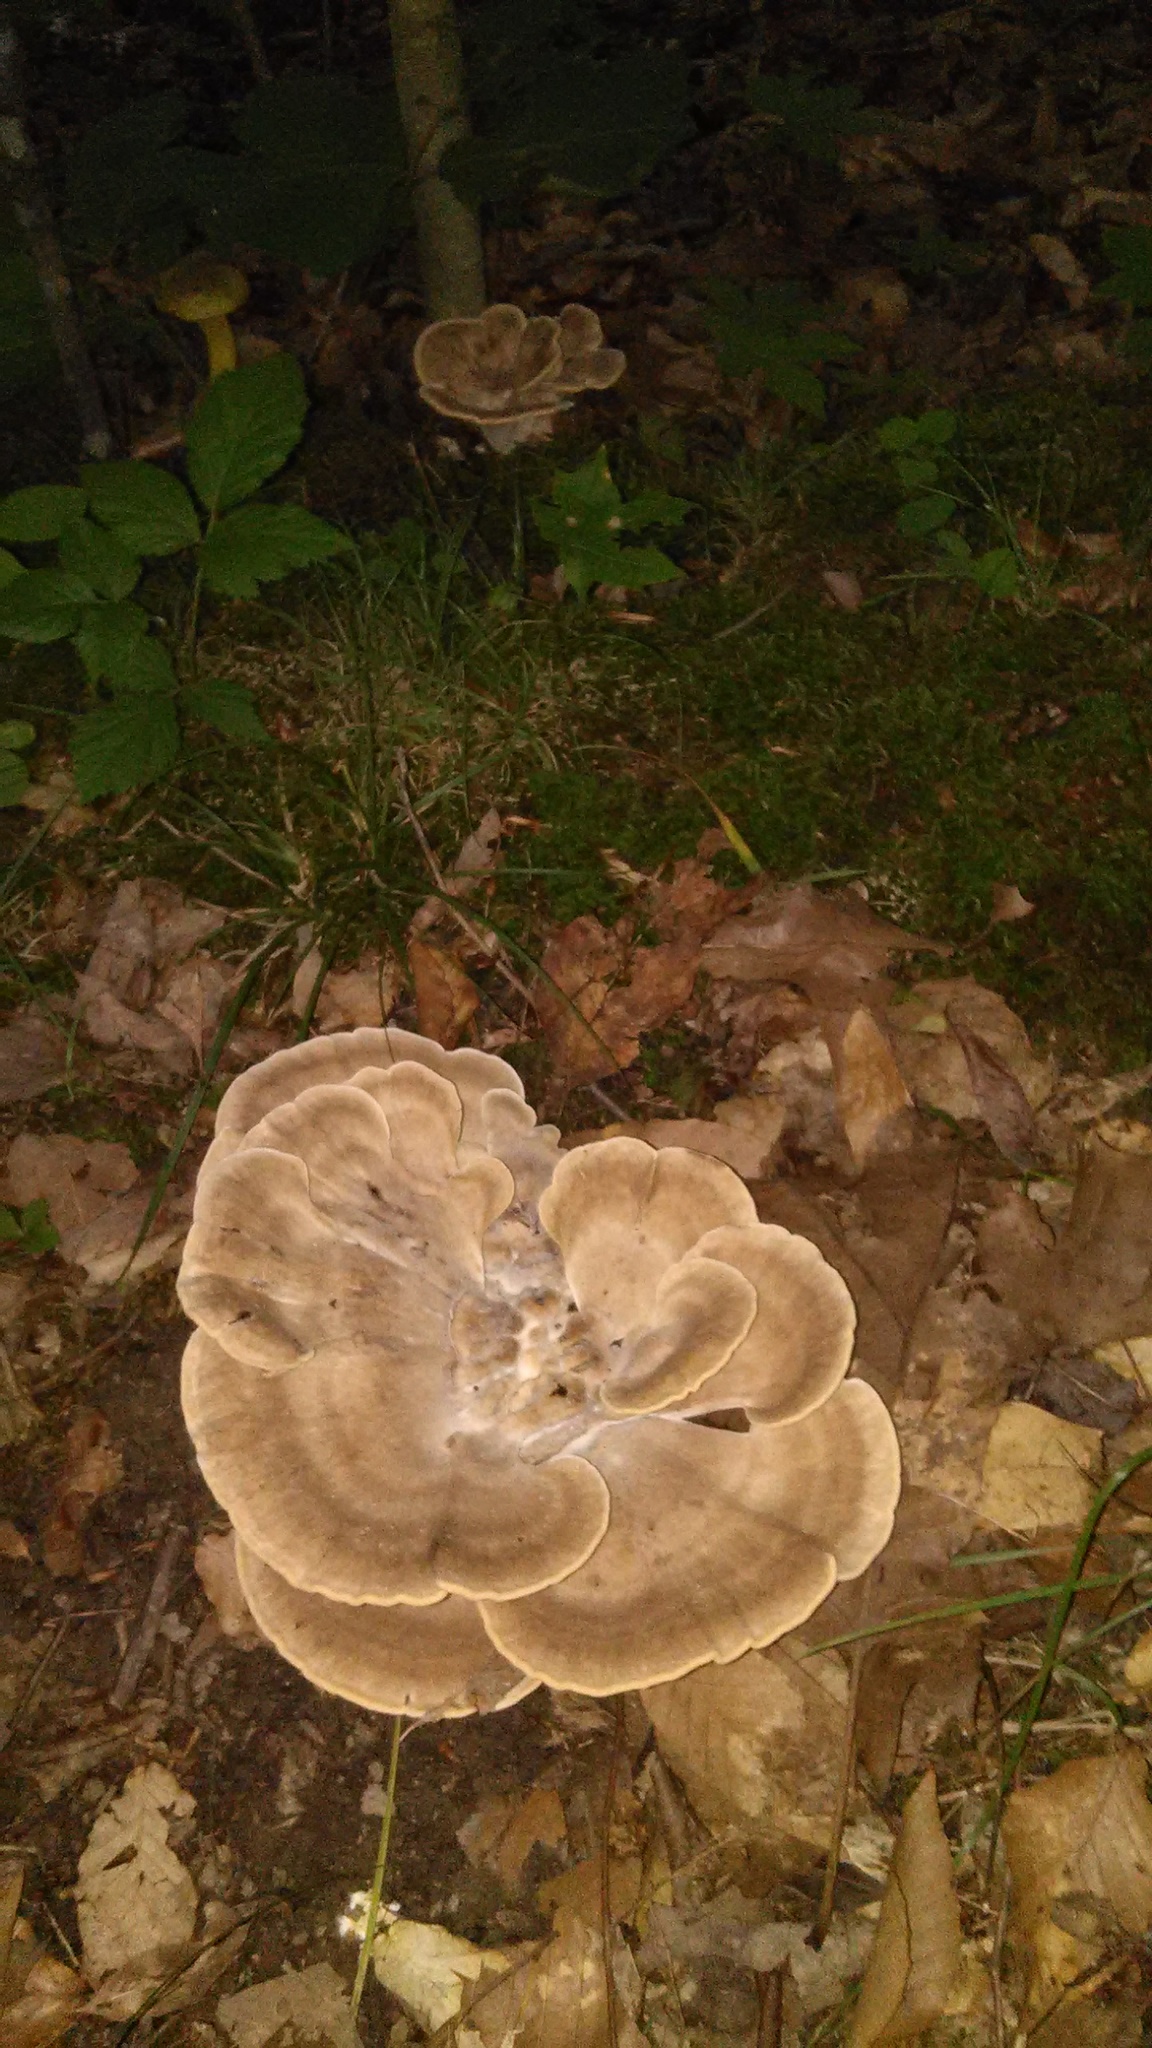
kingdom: Fungi
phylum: Basidiomycota
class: Agaricomycetes
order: Polyporales
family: Meripilaceae
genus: Meripilus
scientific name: Meripilus sumstinei
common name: Black-staining polypore
